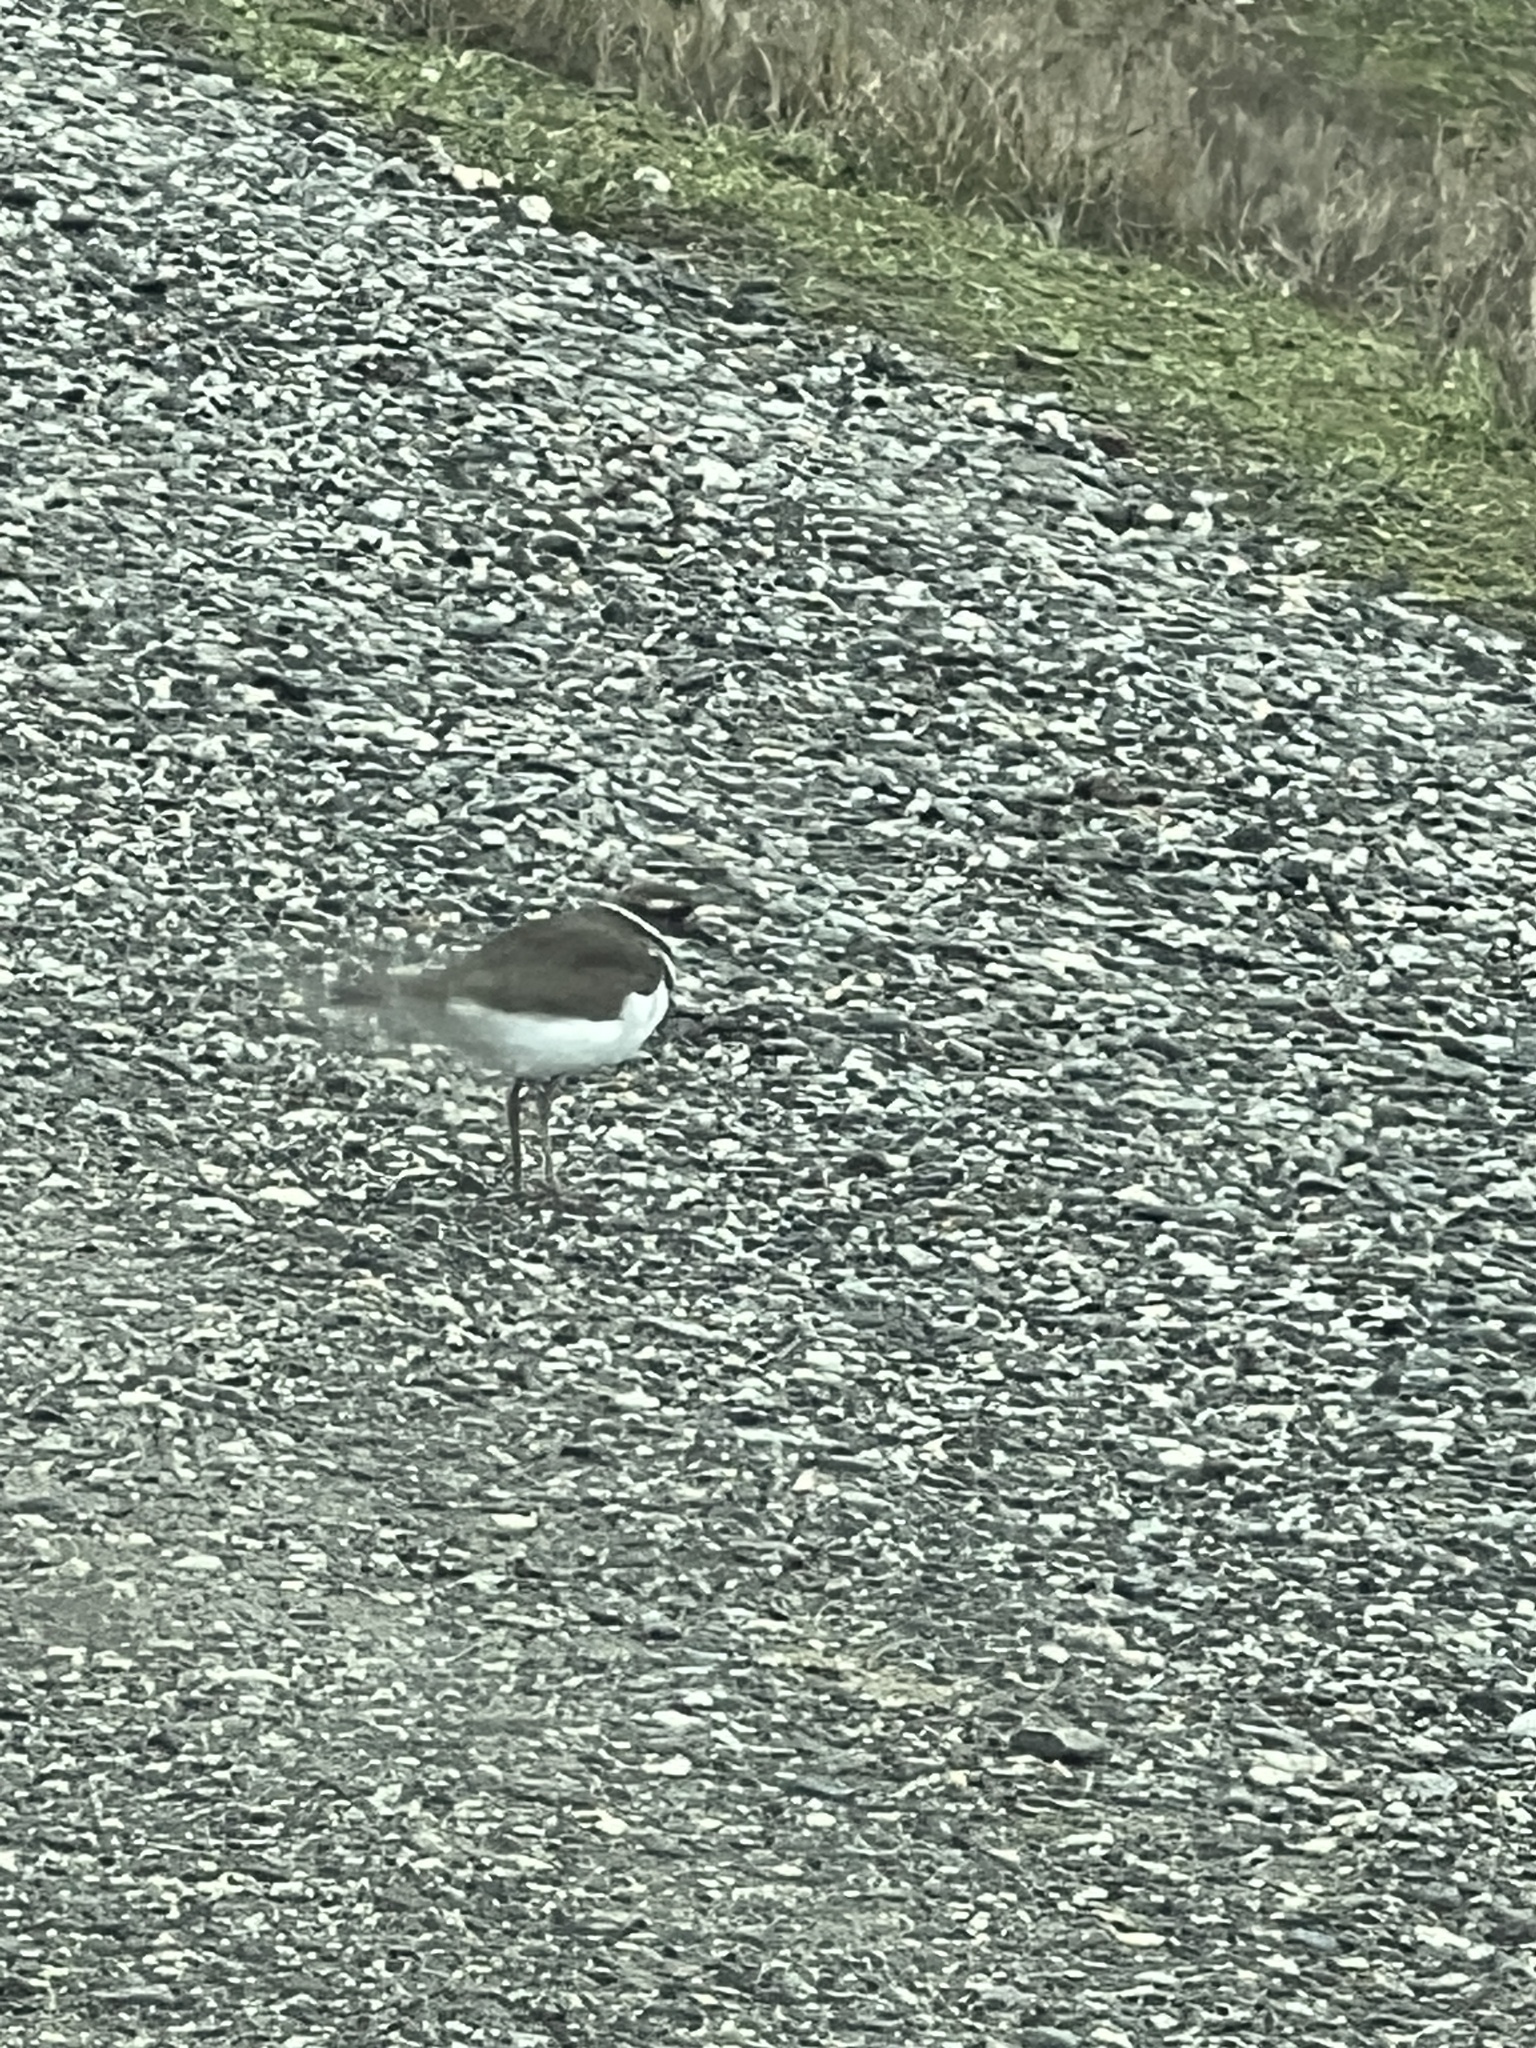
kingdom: Animalia
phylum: Chordata
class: Aves
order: Charadriiformes
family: Charadriidae
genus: Charadrius
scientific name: Charadrius vociferus
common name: Killdeer
